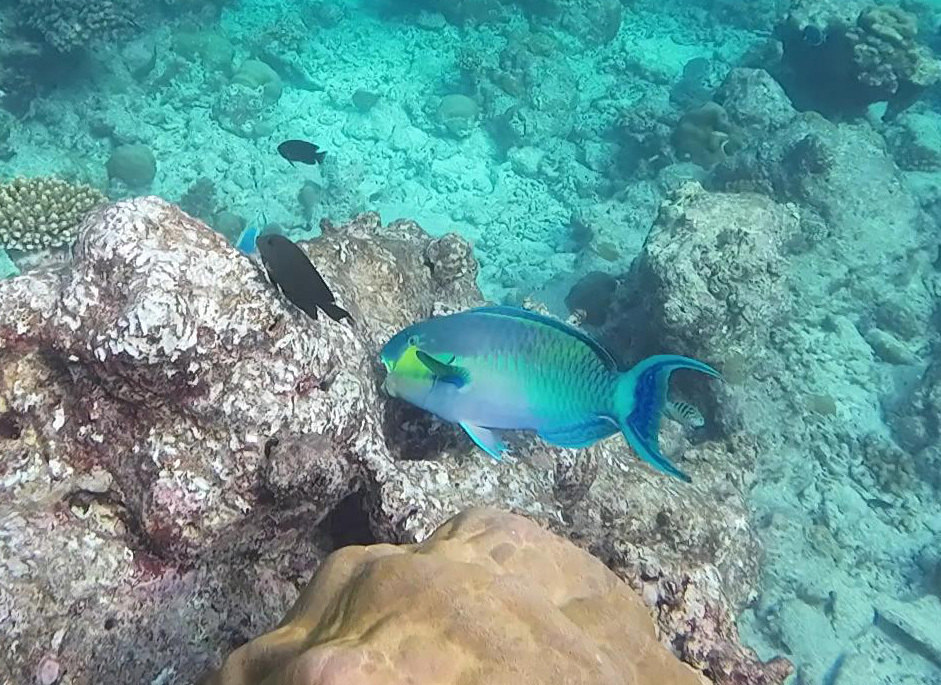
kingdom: Animalia
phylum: Chordata
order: Perciformes
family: Scaridae
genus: Chlorurus
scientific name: Chlorurus strongylocephalus
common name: Steephead parrotfish
